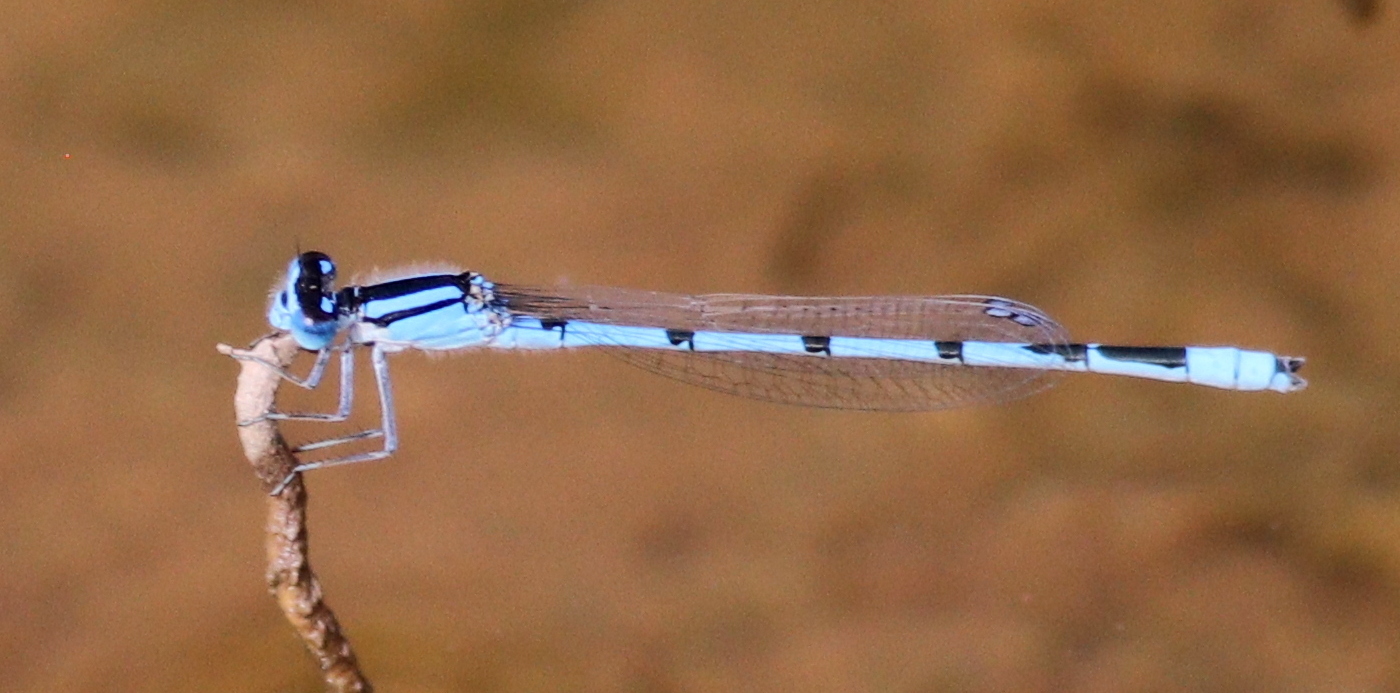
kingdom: Animalia
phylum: Arthropoda
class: Insecta
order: Odonata
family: Coenagrionidae
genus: Enallagma
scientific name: Enallagma civile
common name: Damselfly
